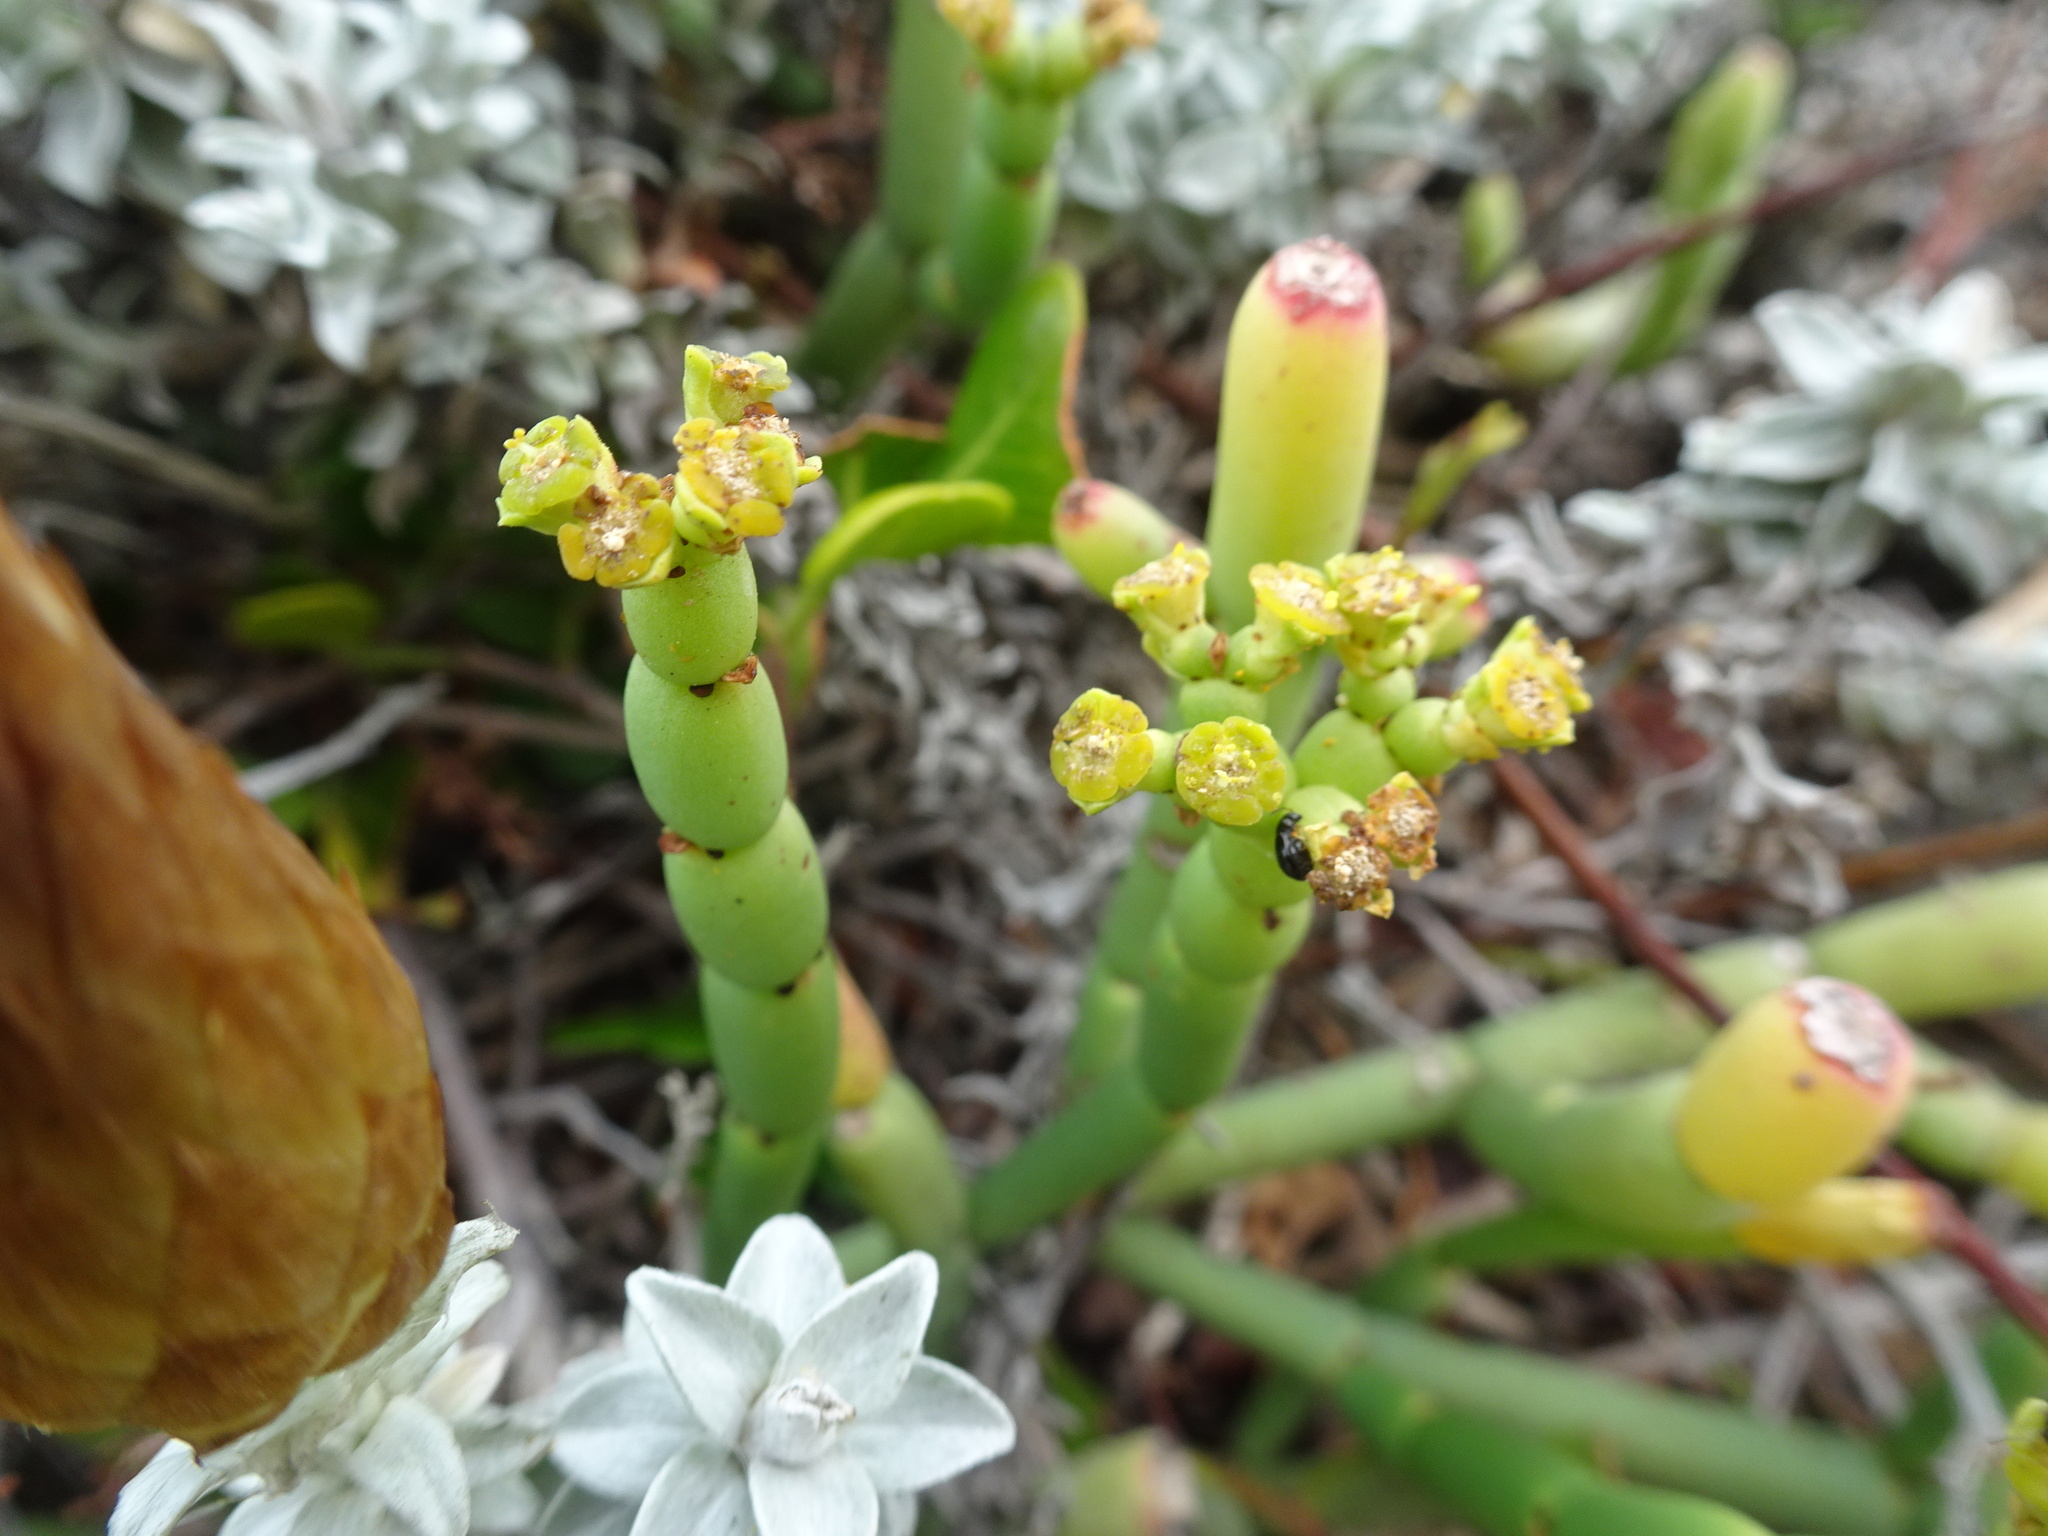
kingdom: Plantae
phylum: Tracheophyta
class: Magnoliopsida
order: Malpighiales
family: Euphorbiaceae
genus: Euphorbia
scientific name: Euphorbia burmanni
